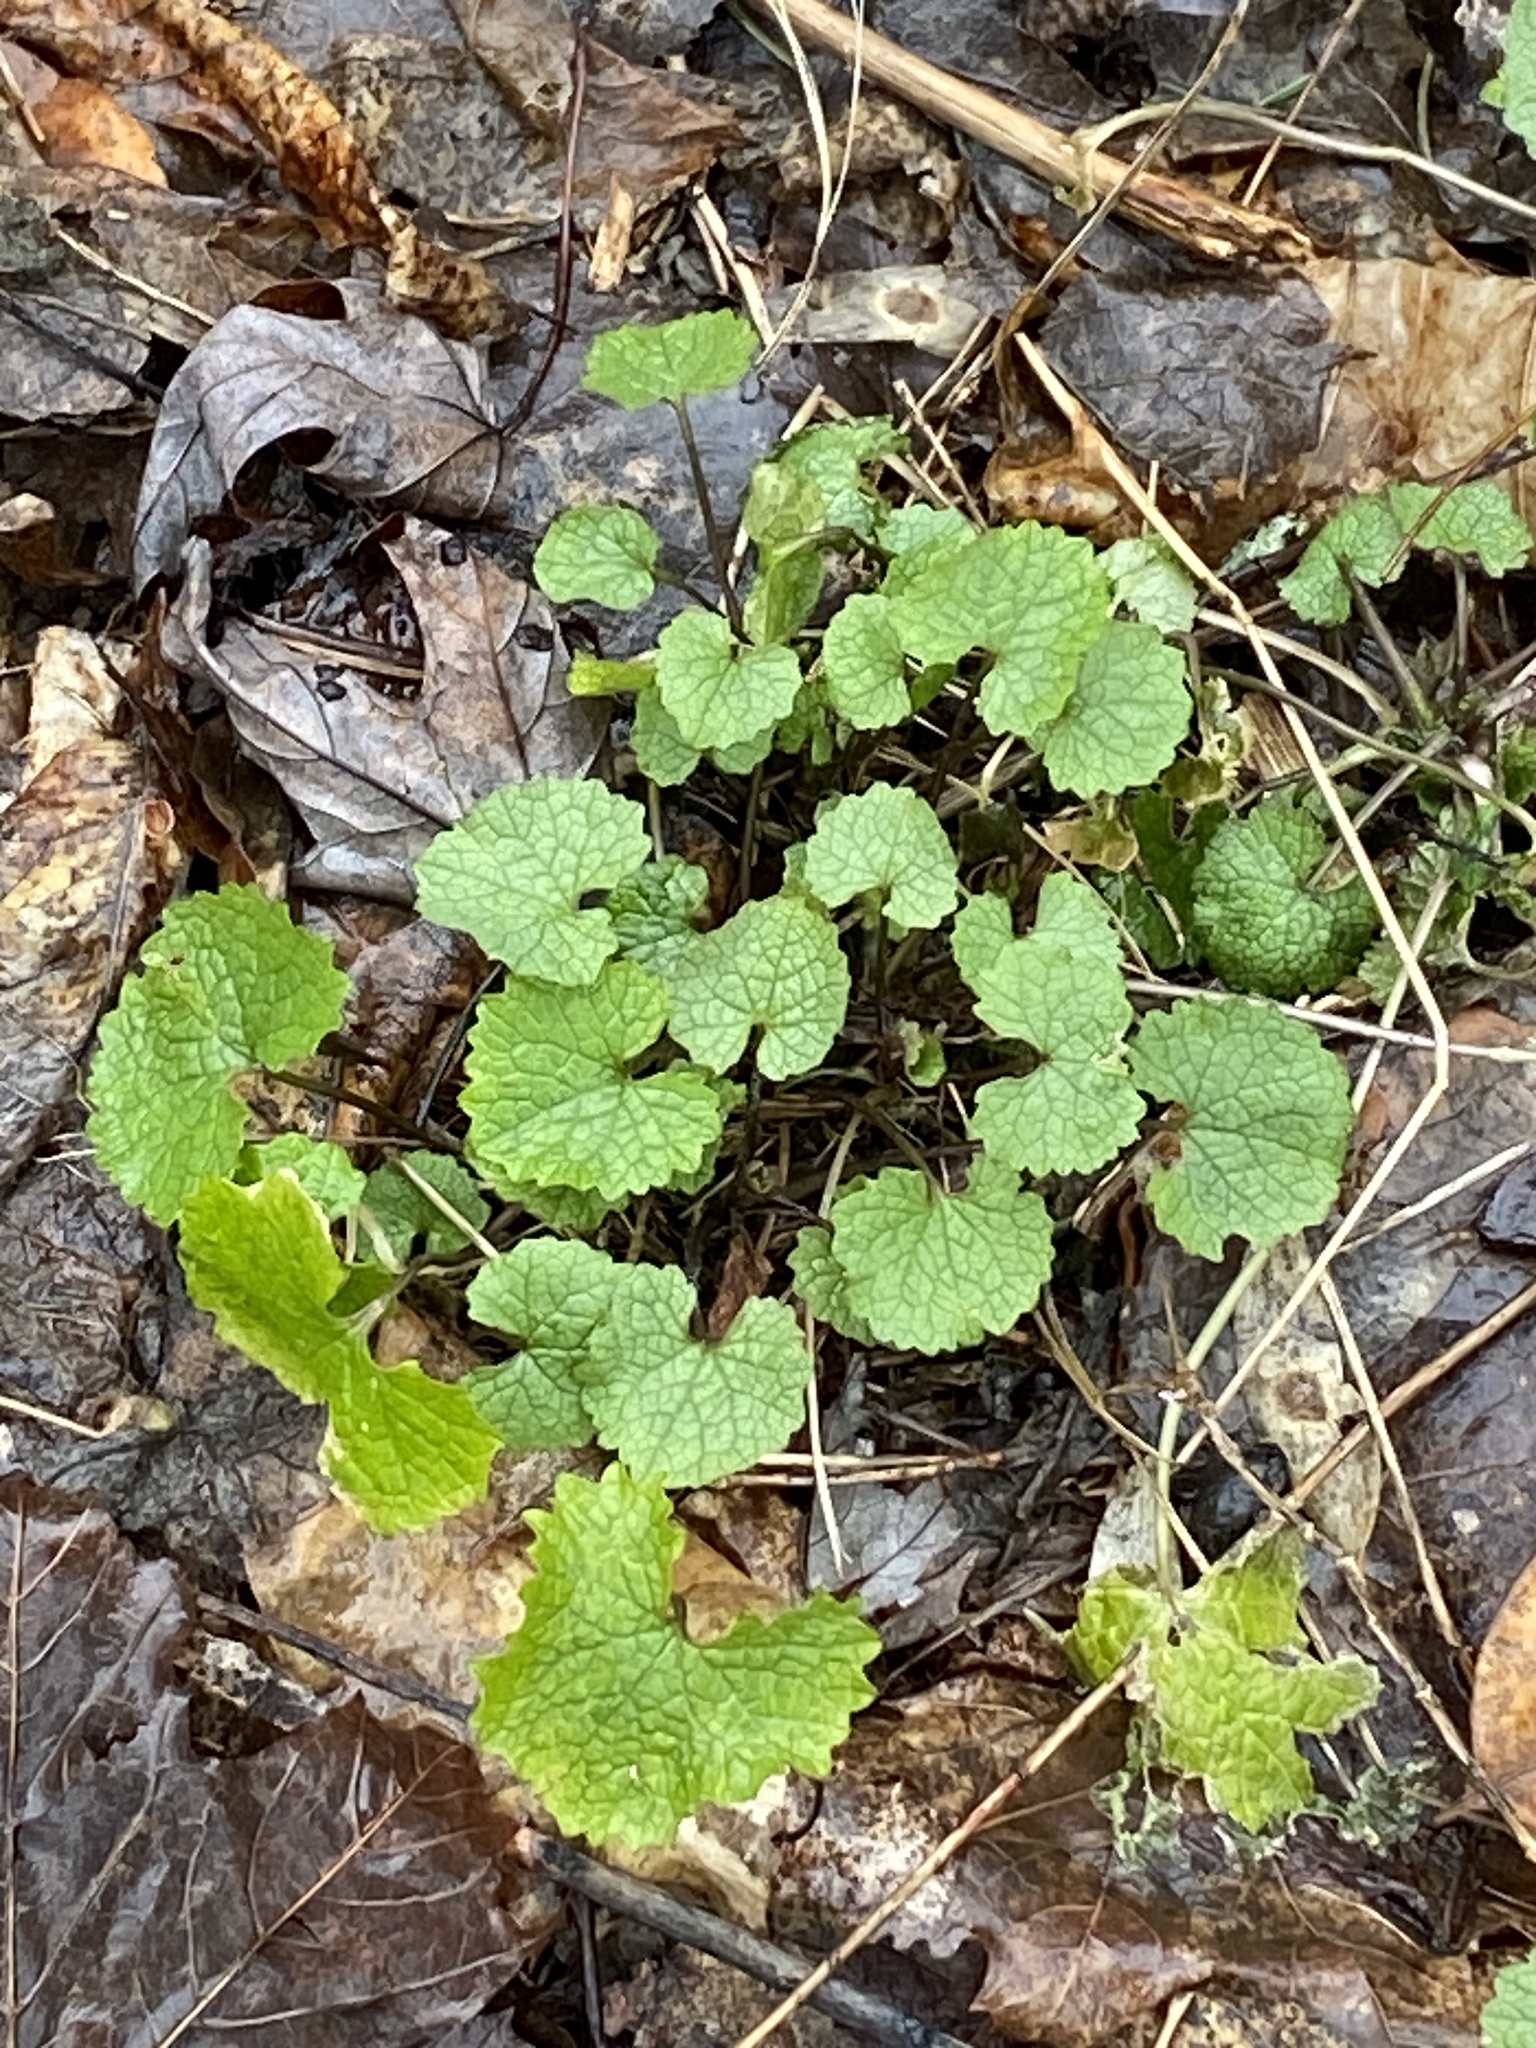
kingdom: Plantae
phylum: Tracheophyta
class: Magnoliopsida
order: Brassicales
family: Brassicaceae
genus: Alliaria
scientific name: Alliaria petiolata
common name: Garlic mustard
